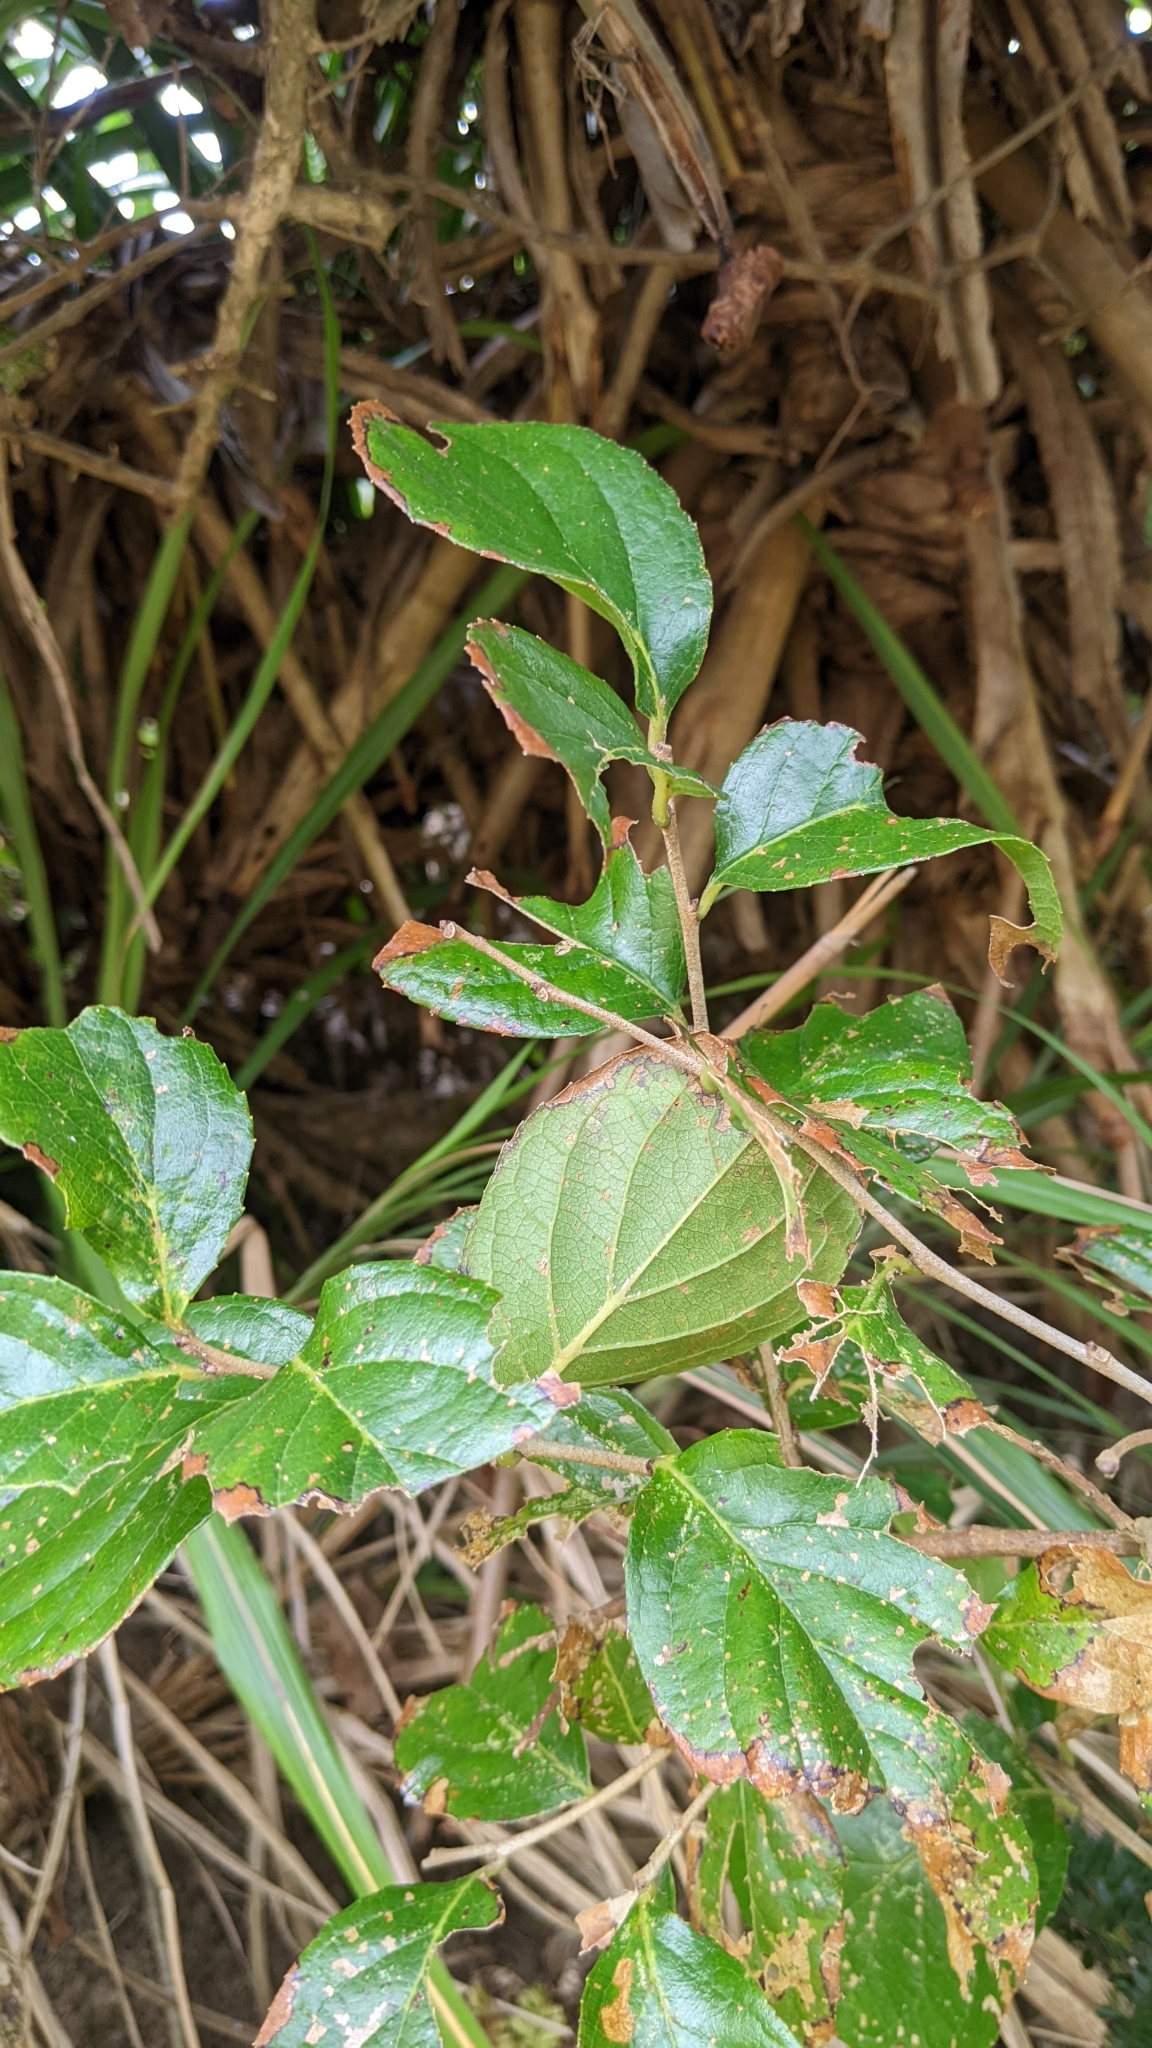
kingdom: Plantae
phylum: Tracheophyta
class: Magnoliopsida
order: Ericales
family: Symplocaceae
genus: Symplocos
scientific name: Symplocos paniculata
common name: Sapphire-berry
